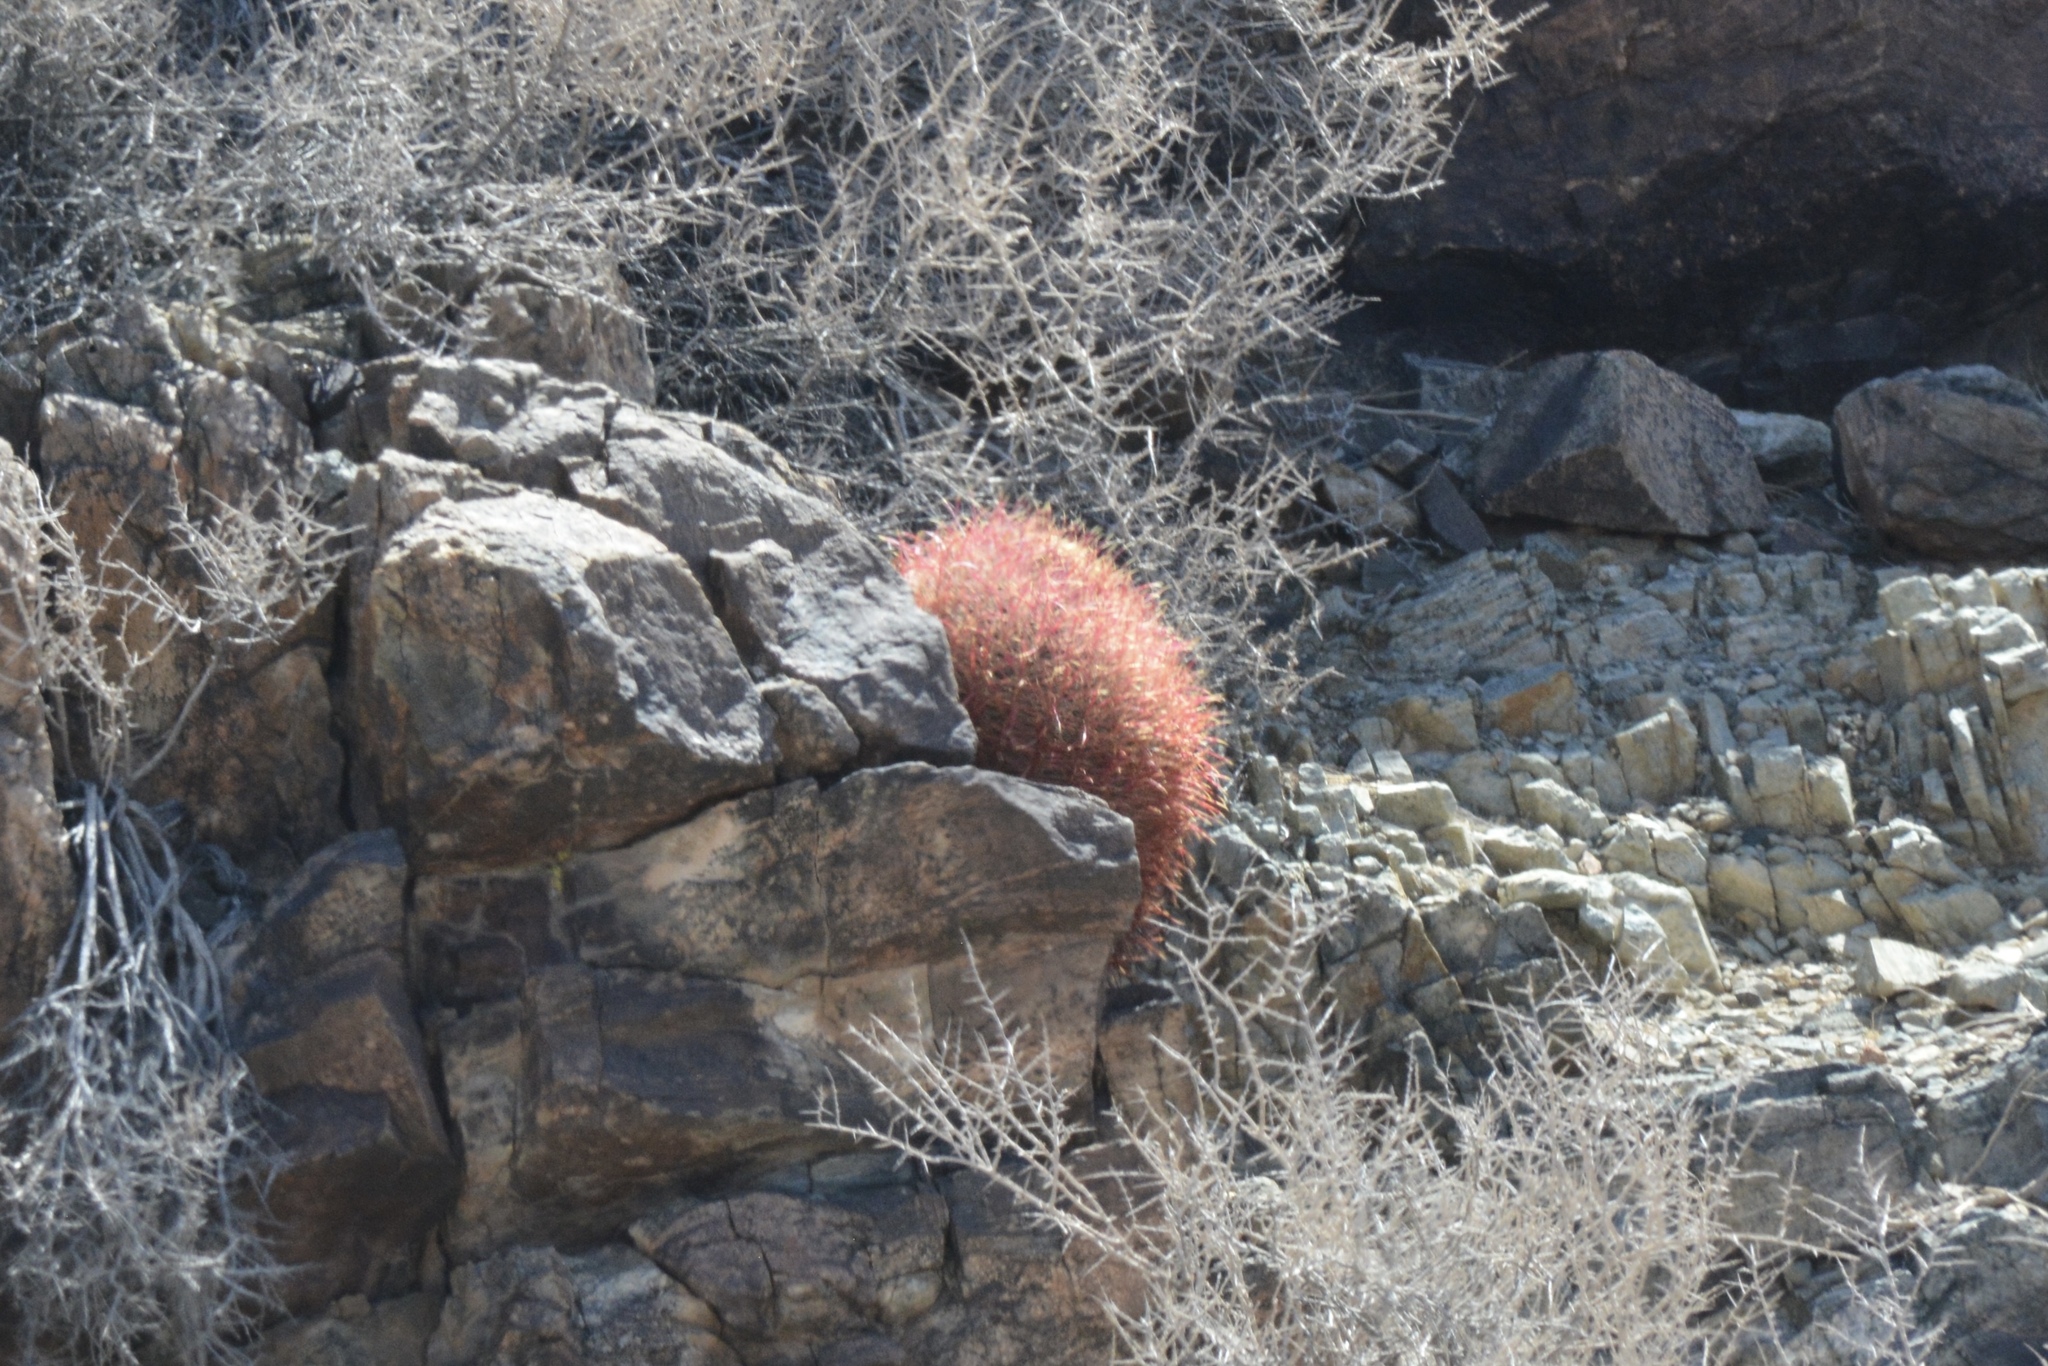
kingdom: Plantae
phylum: Tracheophyta
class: Magnoliopsida
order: Caryophyllales
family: Cactaceae
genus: Ferocactus
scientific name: Ferocactus cylindraceus
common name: California barrel cactus
